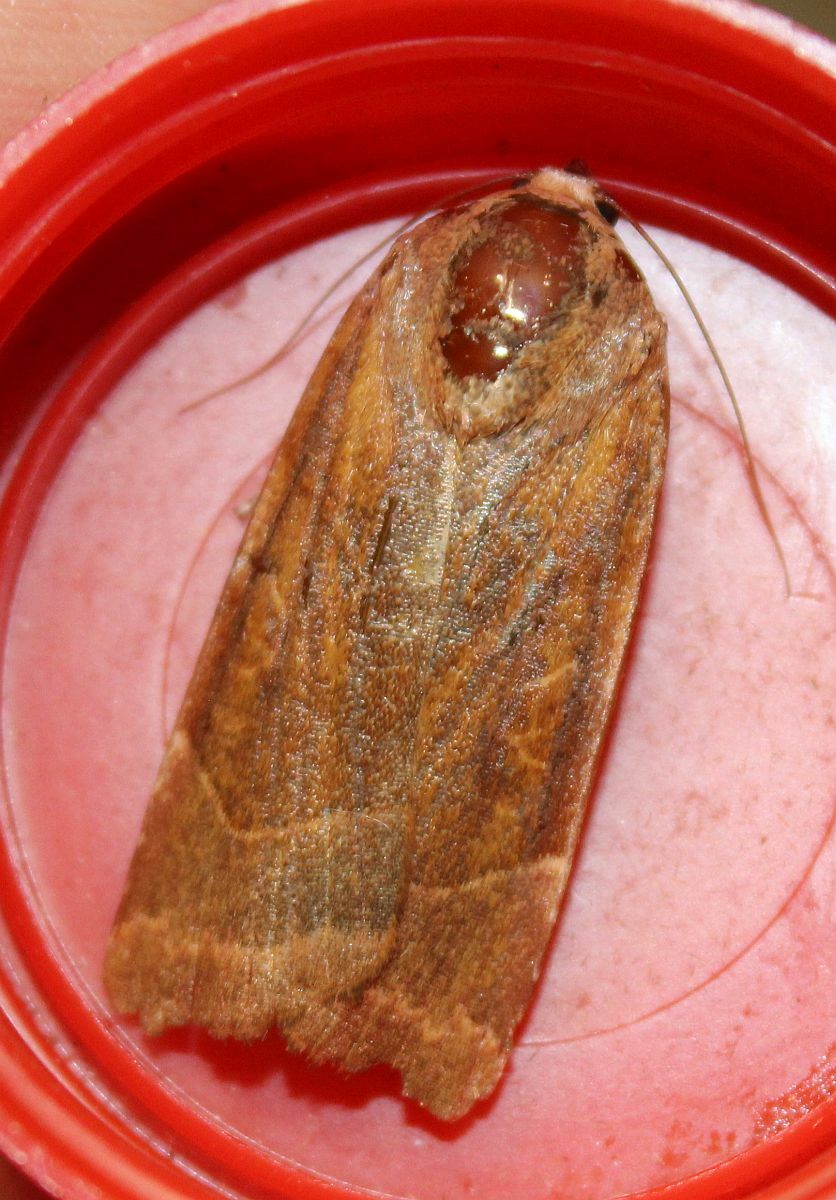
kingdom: Animalia
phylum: Arthropoda
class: Insecta
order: Lepidoptera
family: Noctuidae
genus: Noctua
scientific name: Noctua fimbriata
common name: Broad-bordered yellow underwing
